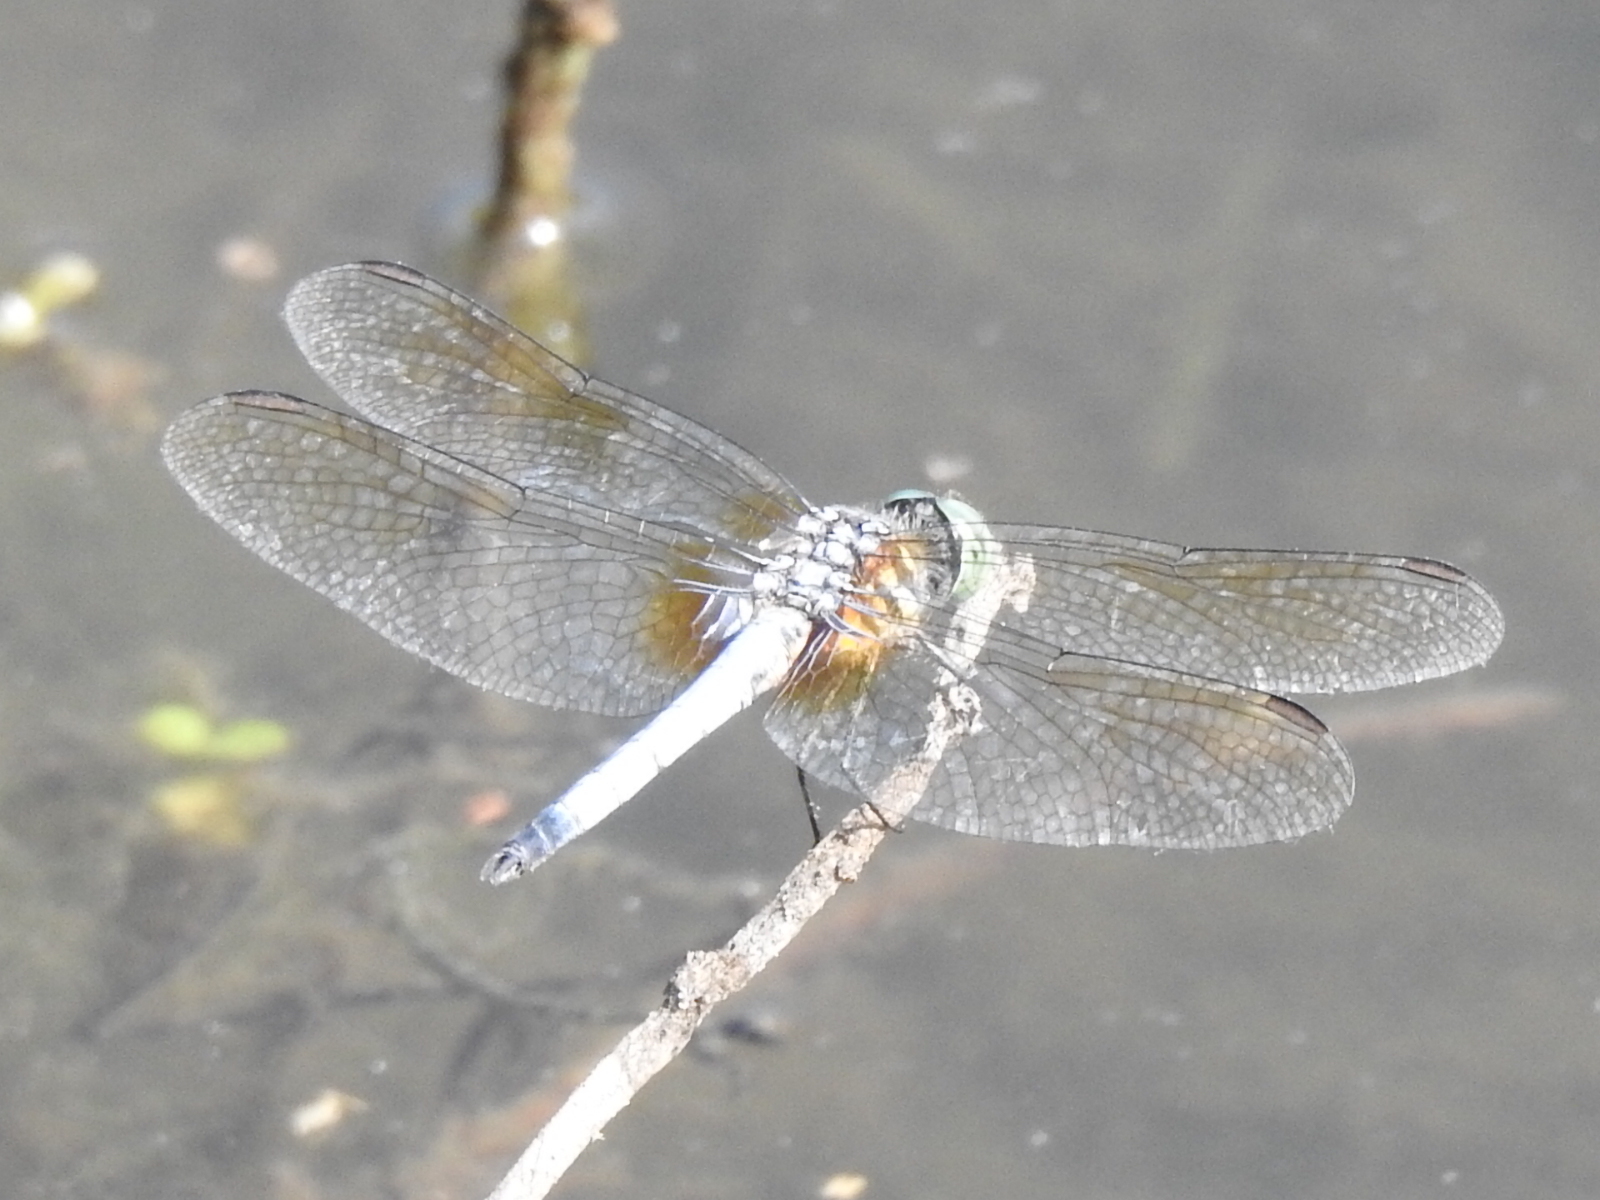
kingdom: Animalia
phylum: Arthropoda
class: Insecta
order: Odonata
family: Libellulidae
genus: Pachydiplax
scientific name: Pachydiplax longipennis
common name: Blue dasher
